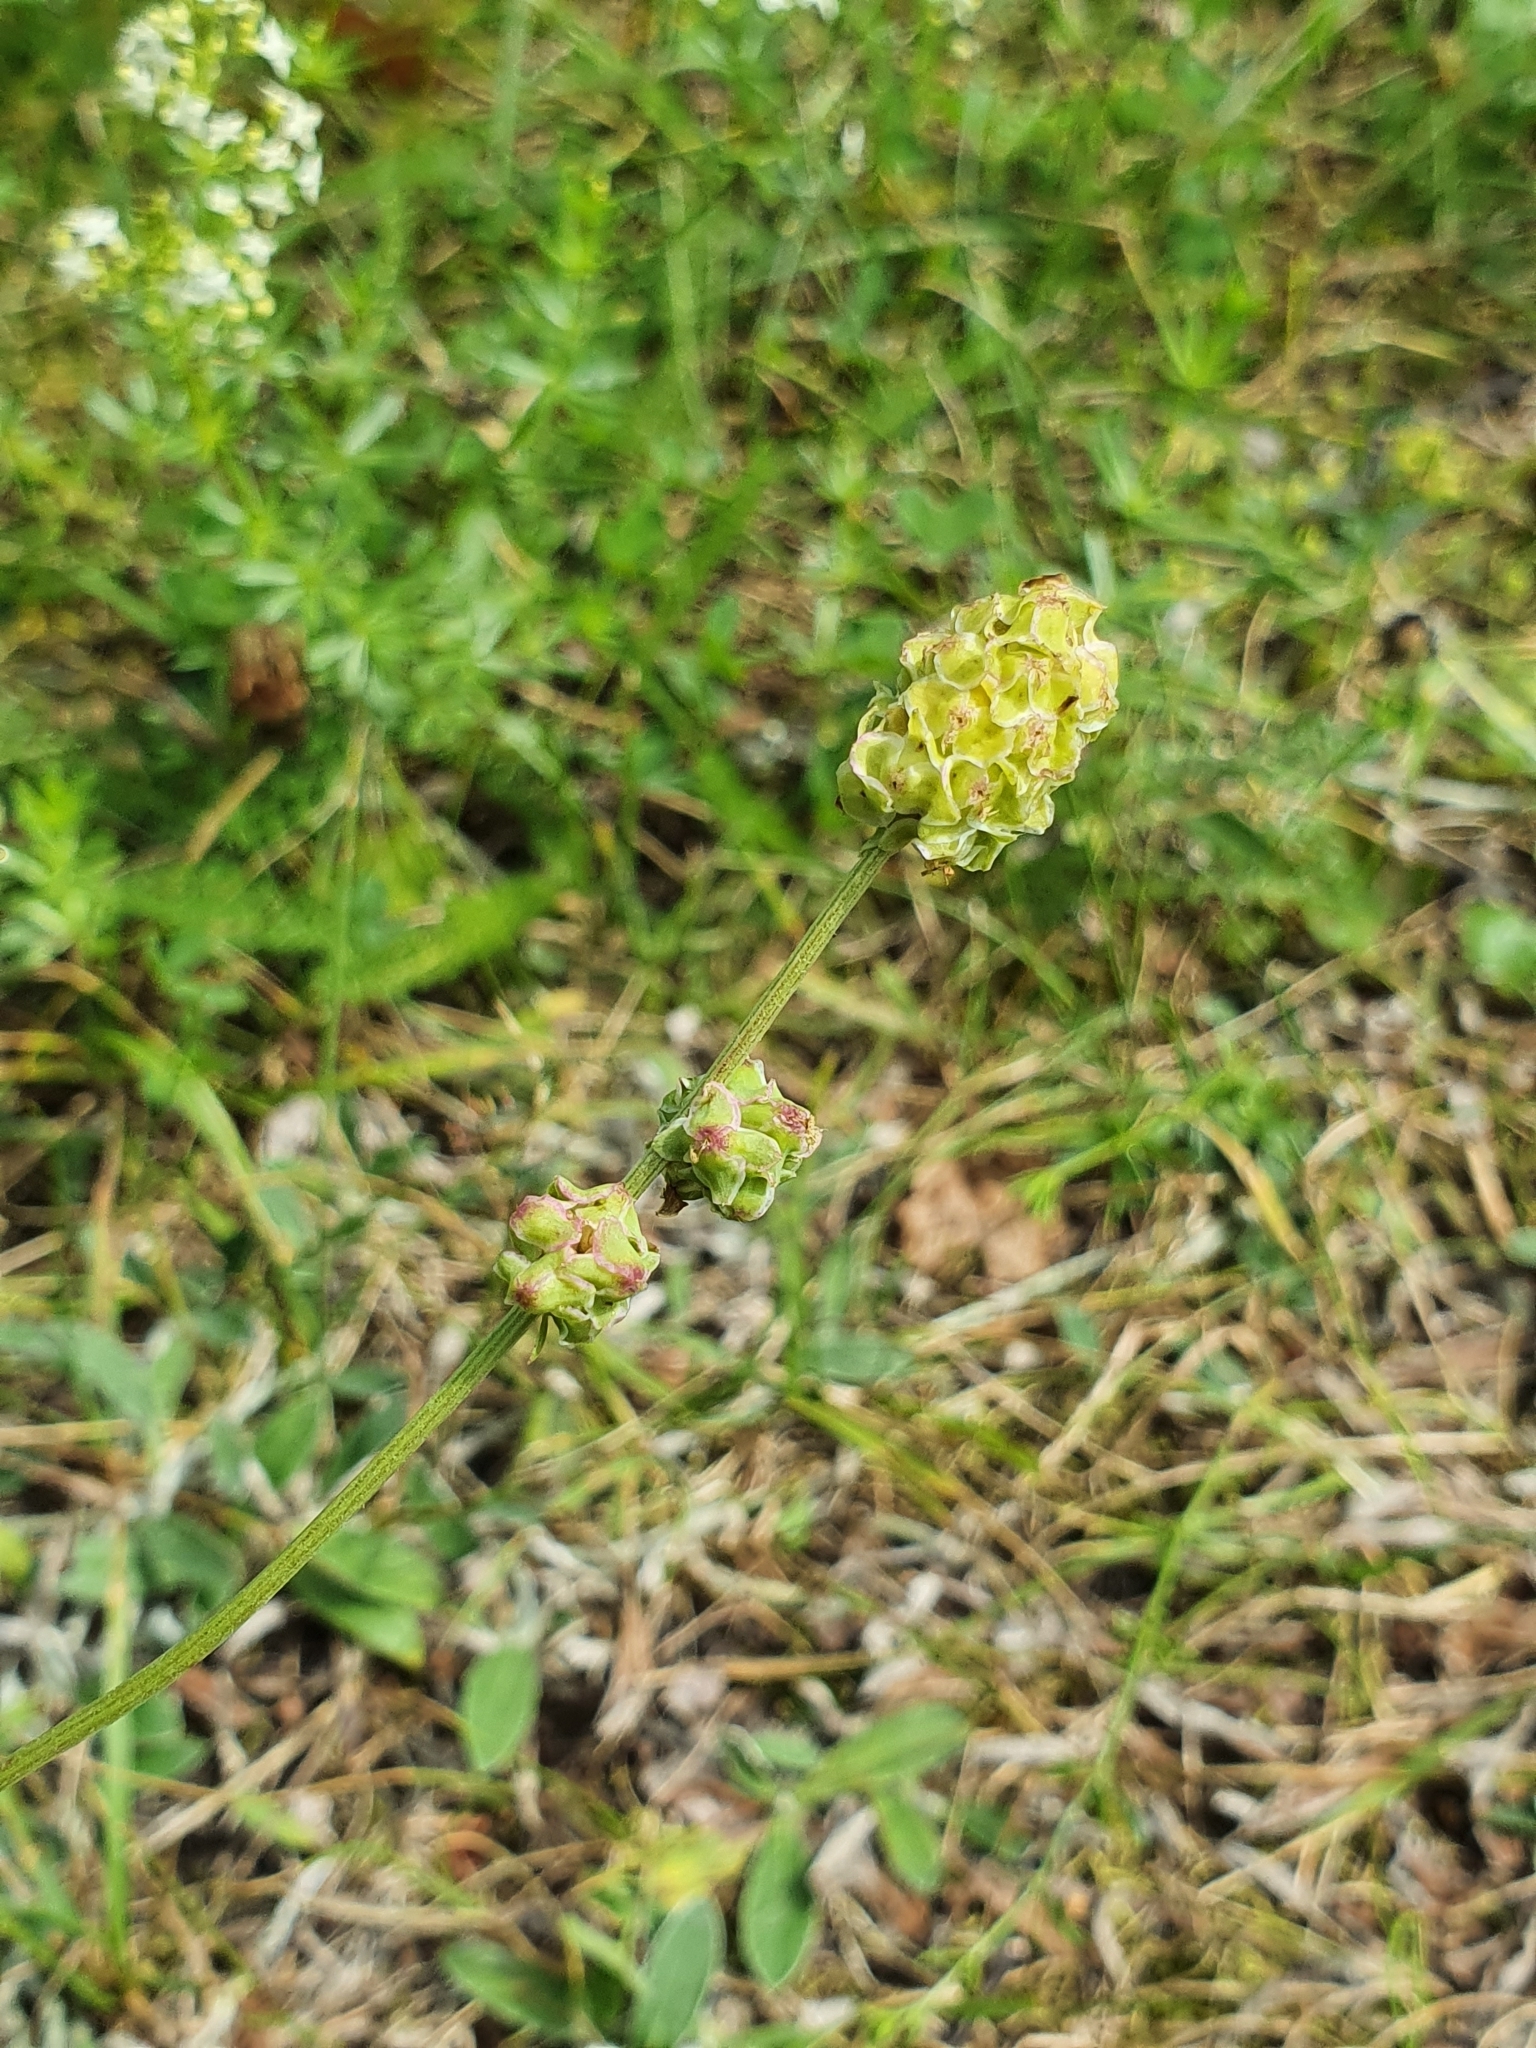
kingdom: Plantae
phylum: Tracheophyta
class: Magnoliopsida
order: Rosales
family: Rosaceae
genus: Poterium
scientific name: Poterium sanguisorba
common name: Salad burnet
